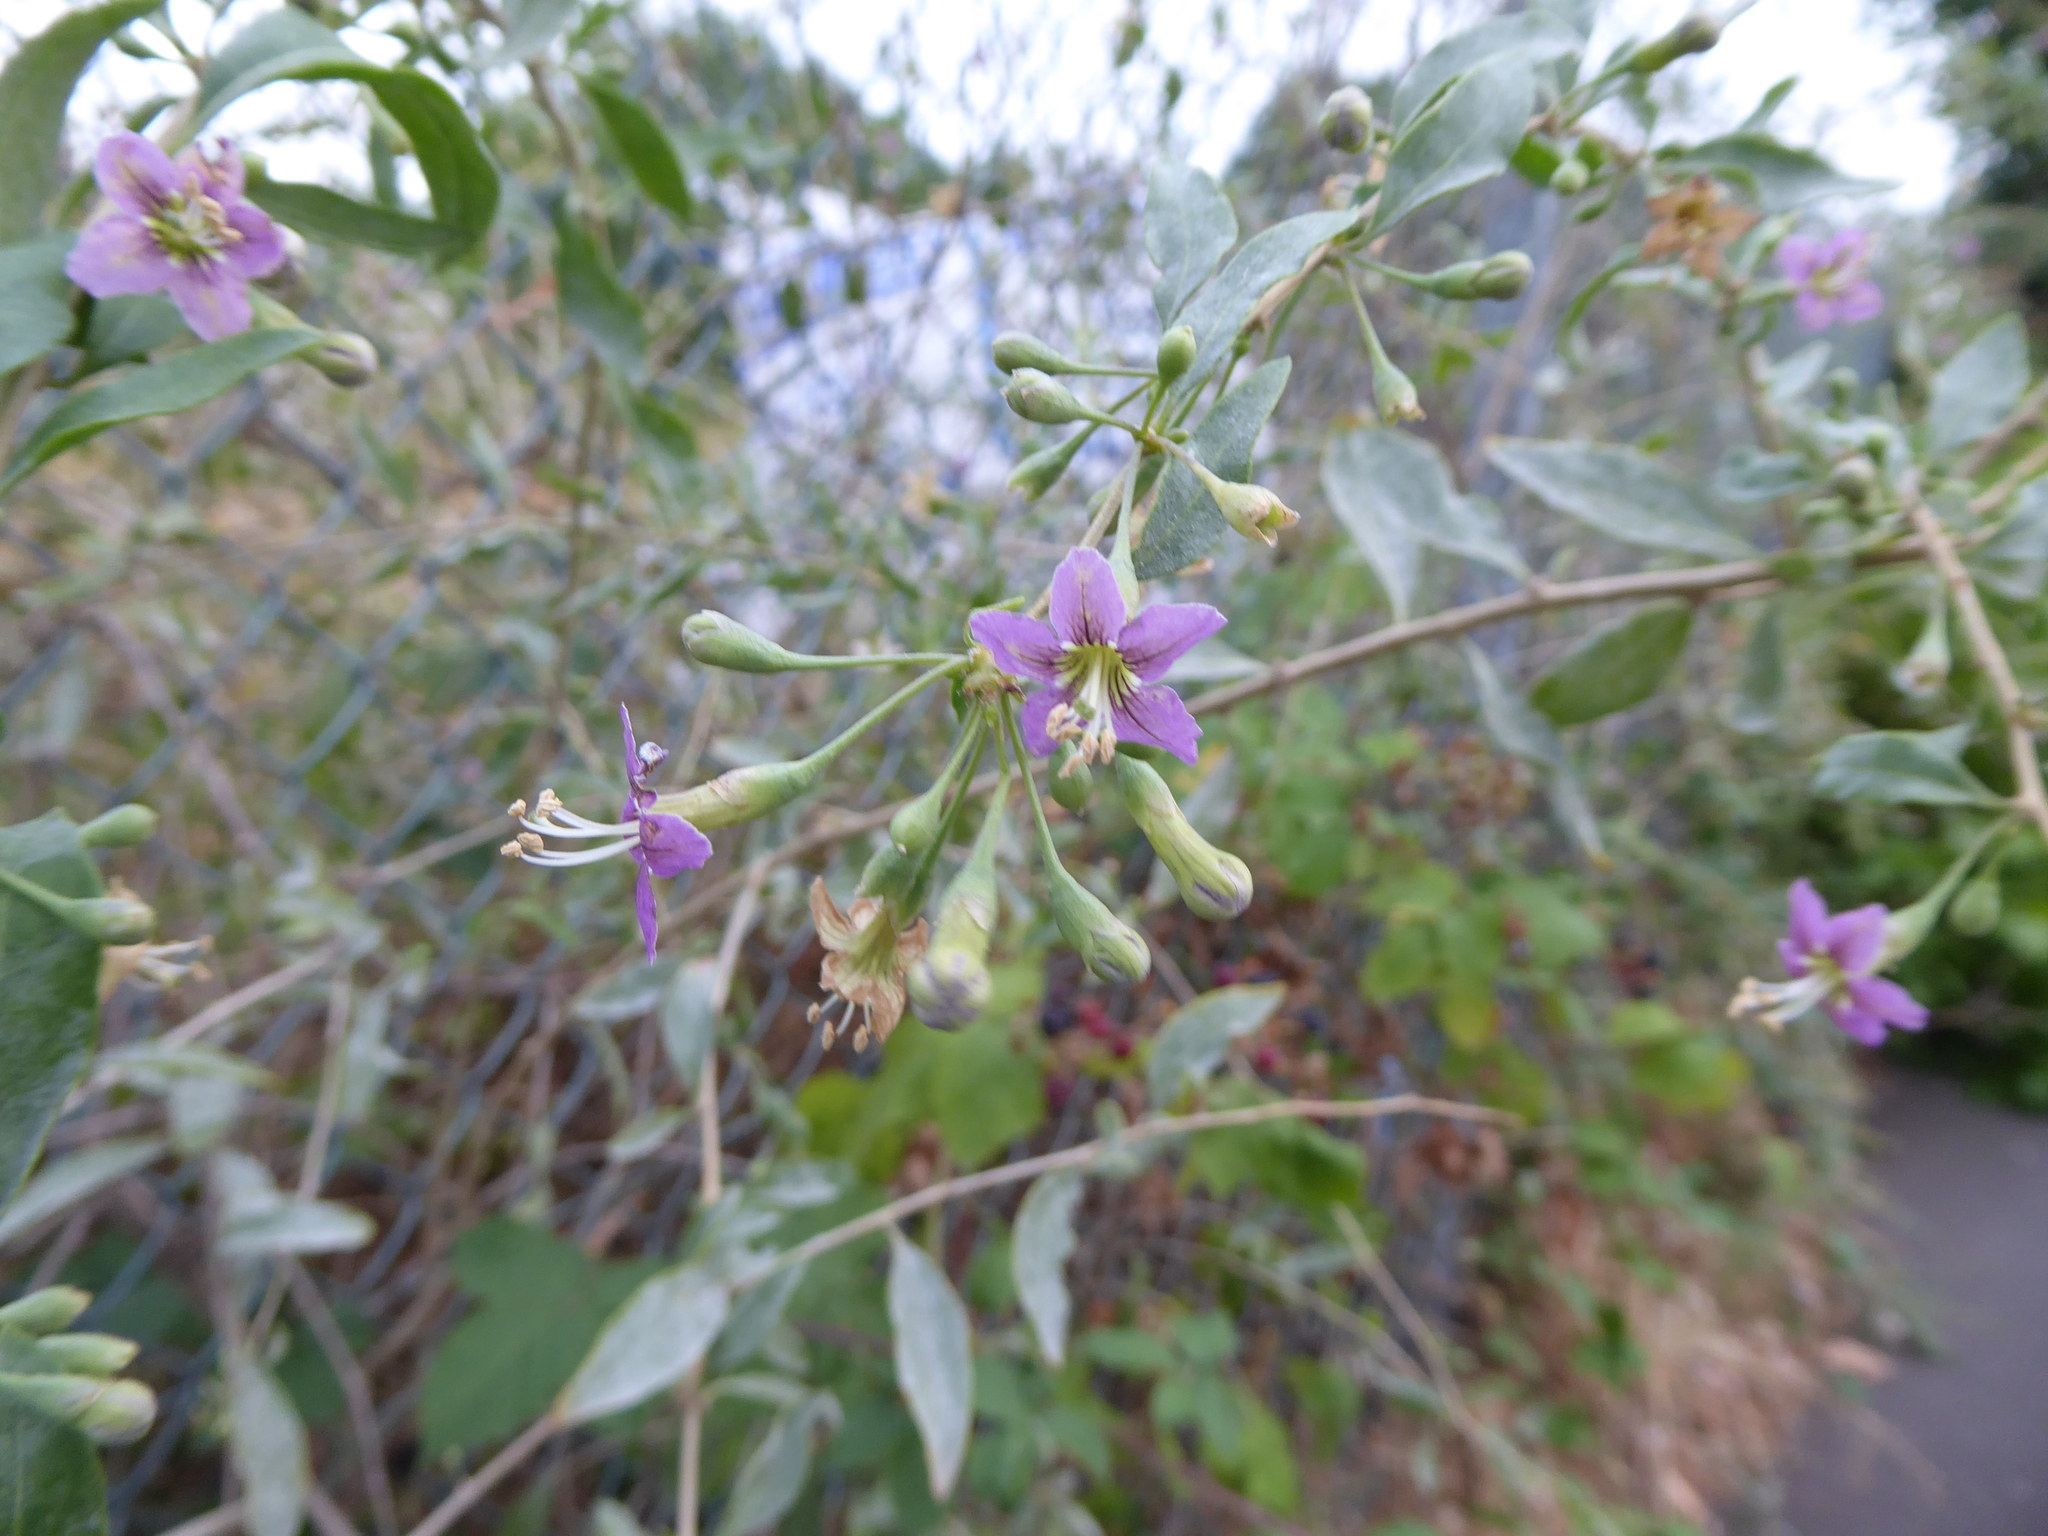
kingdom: Plantae
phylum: Tracheophyta
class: Magnoliopsida
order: Solanales
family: Solanaceae
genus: Lycium
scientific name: Lycium barbarum
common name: Duke of argyll's teaplant
